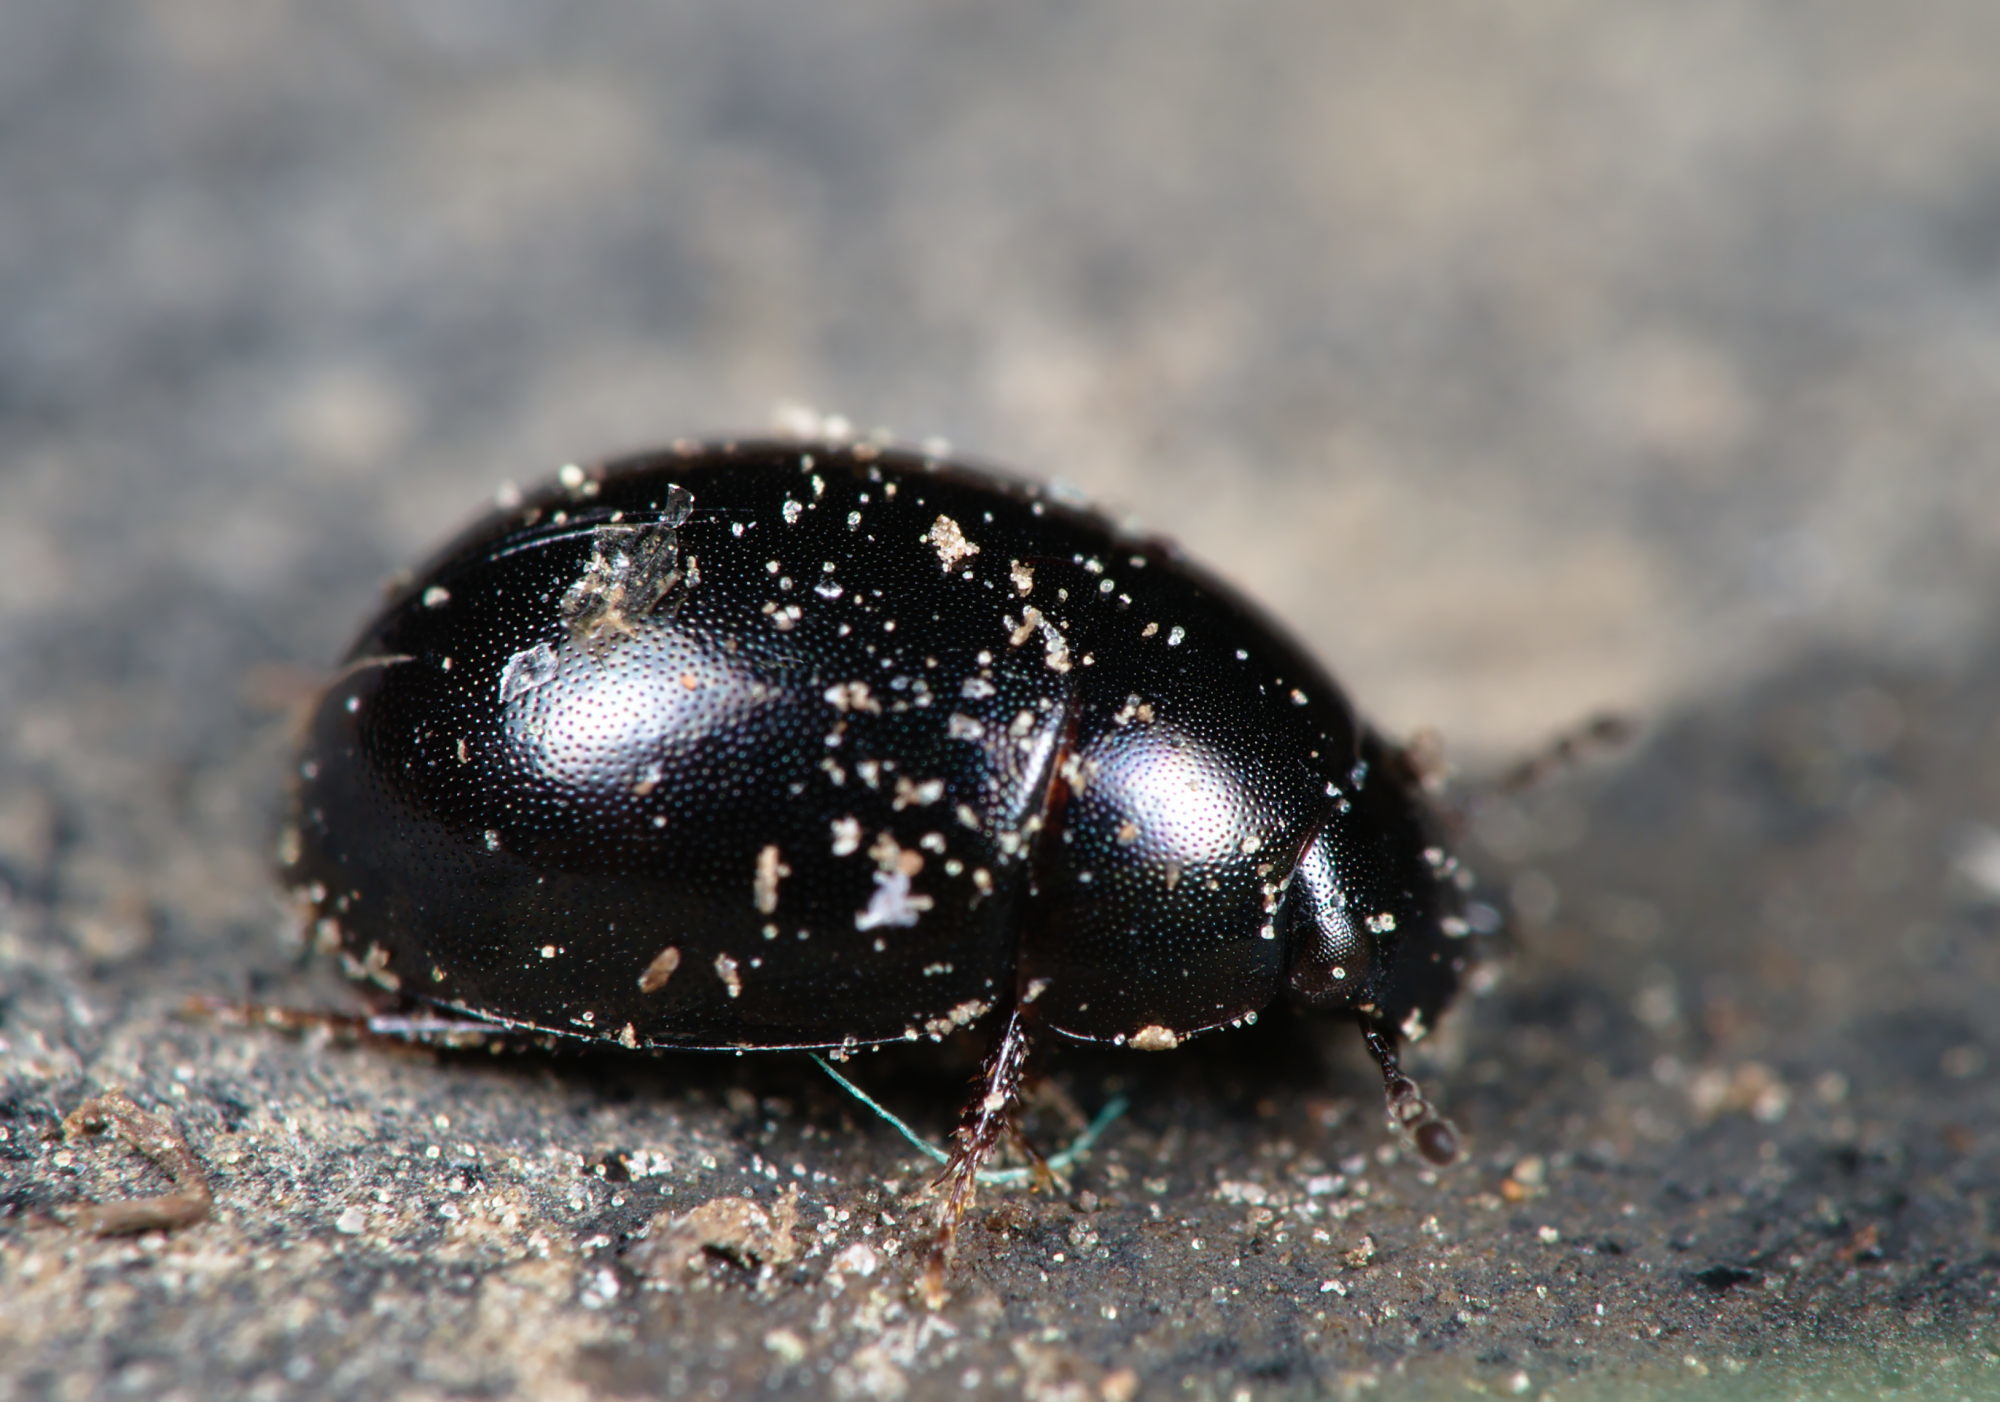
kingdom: Animalia
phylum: Arthropoda
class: Insecta
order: Coleoptera
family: Hydrophilidae
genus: Coelostoma
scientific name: Coelostoma orbiculare
